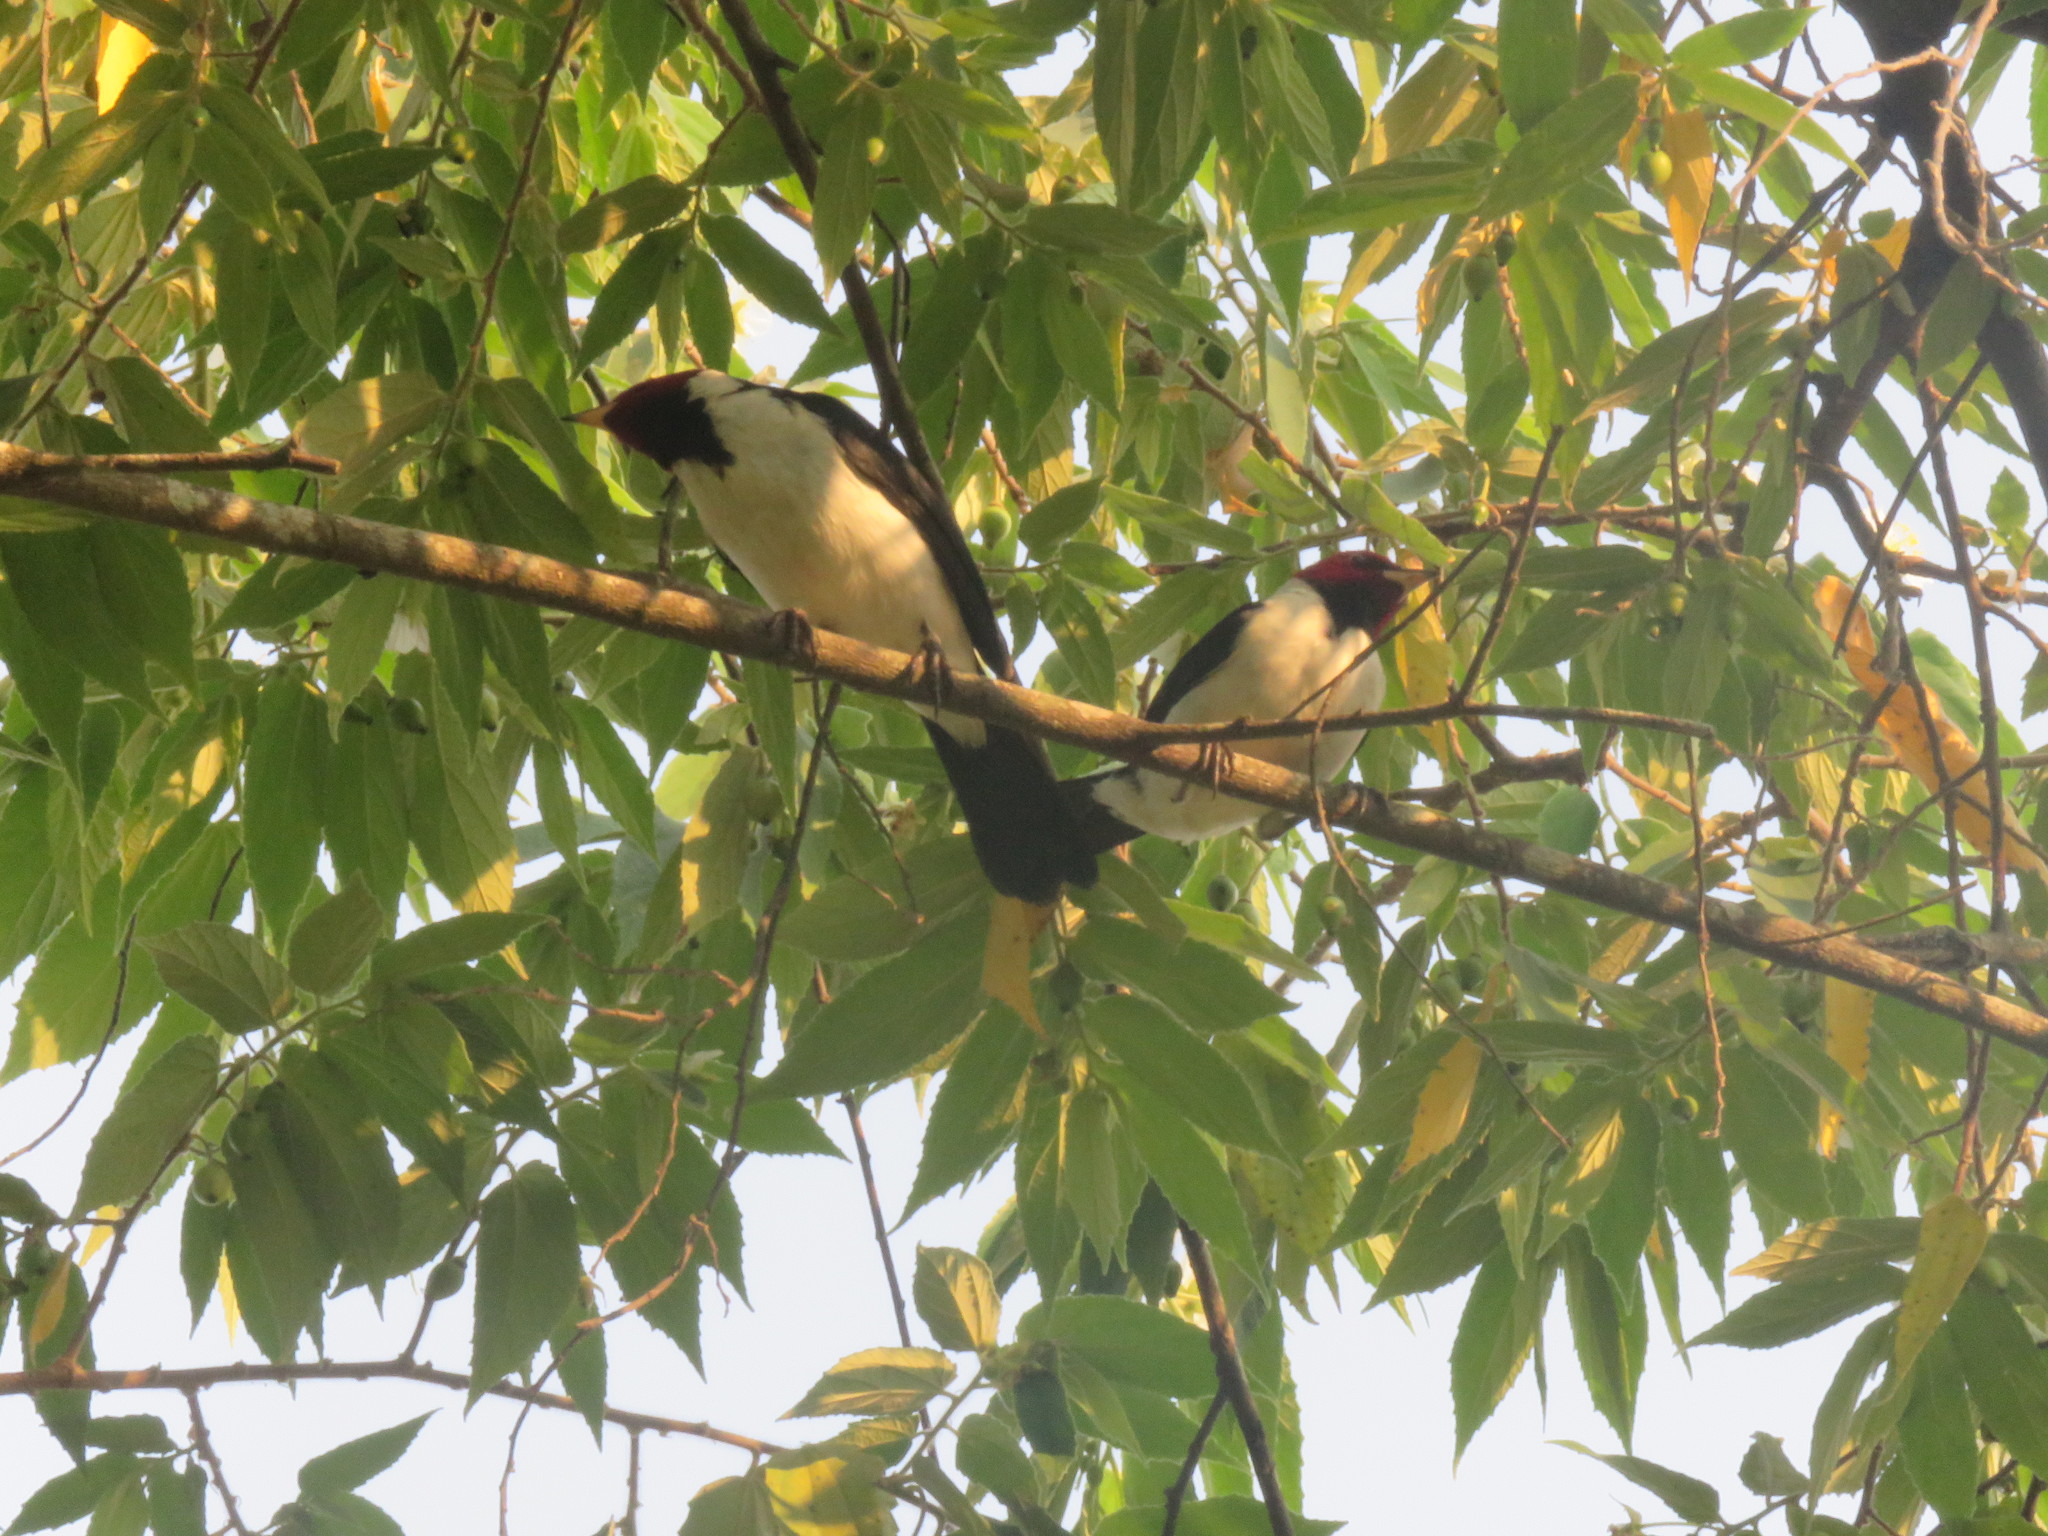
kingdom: Animalia
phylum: Chordata
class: Aves
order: Passeriformes
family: Thraupidae
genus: Paroaria
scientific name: Paroaria gularis
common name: Red-capped cardinal
